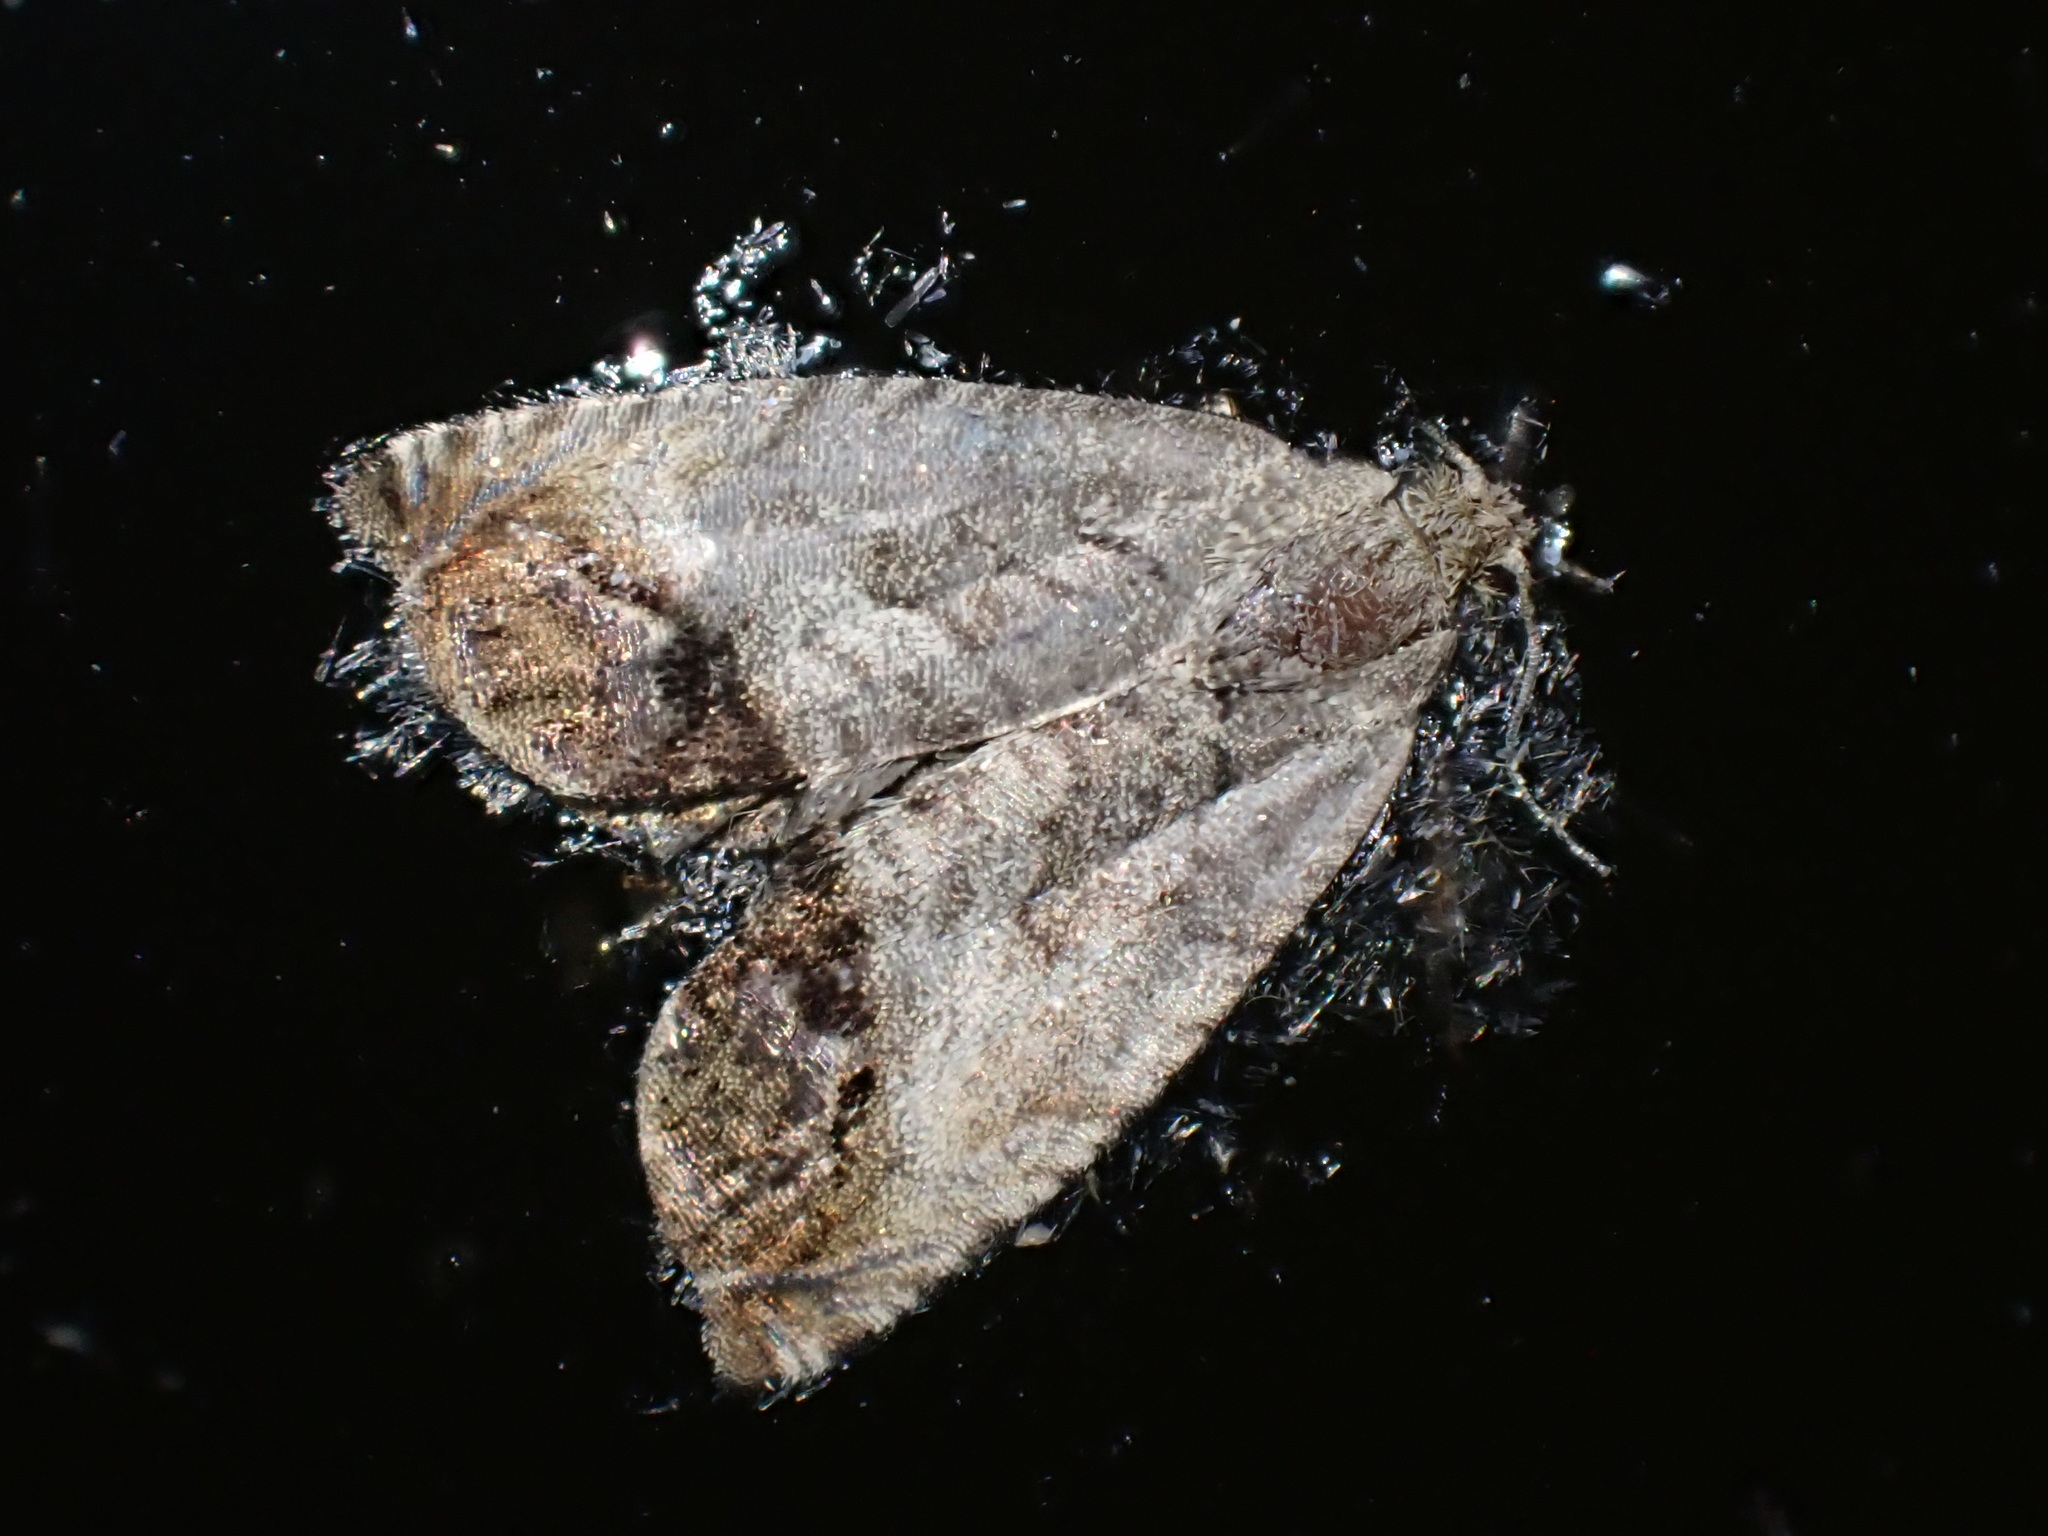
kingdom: Animalia
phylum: Arthropoda
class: Insecta
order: Lepidoptera
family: Tortricidae
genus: Cydia
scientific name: Cydia splendana
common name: De: kastanienwickler, eichenwickler es: oruga de la castaña fr: carpocapse des châtaignes it: cidia o tortrice tardiva delle castagne pt: bichado das castanhas gb: acorn moth, chestnut fruit tortrix
